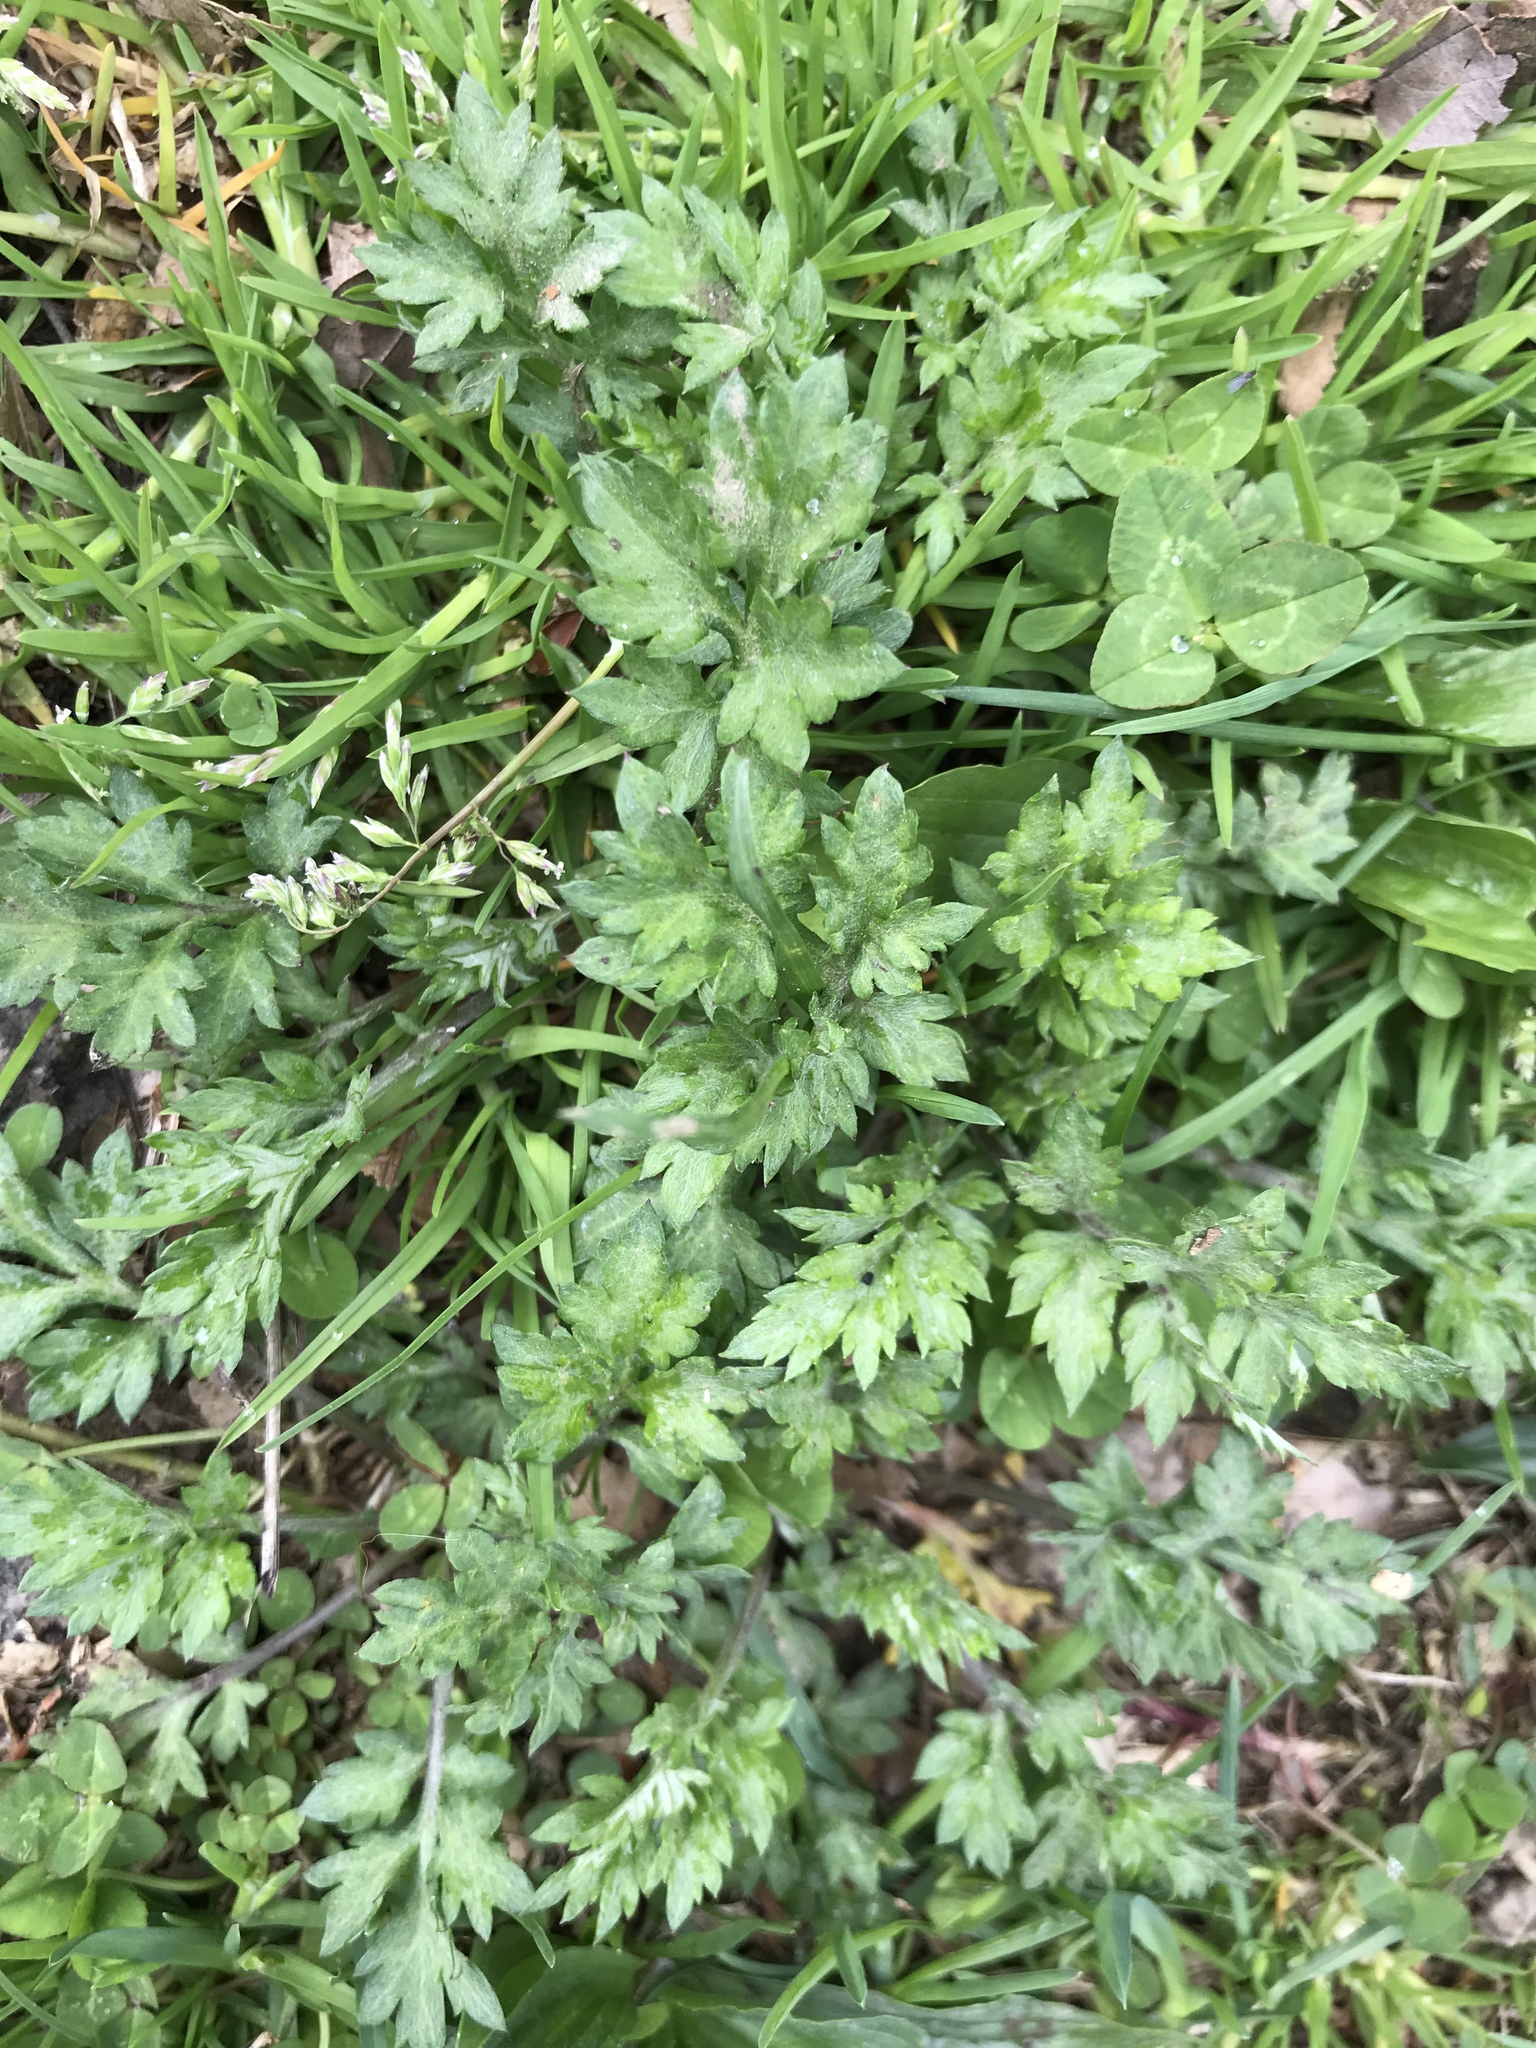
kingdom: Plantae
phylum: Tracheophyta
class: Magnoliopsida
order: Asterales
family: Asteraceae
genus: Artemisia
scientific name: Artemisia vulgaris
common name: Mugwort
